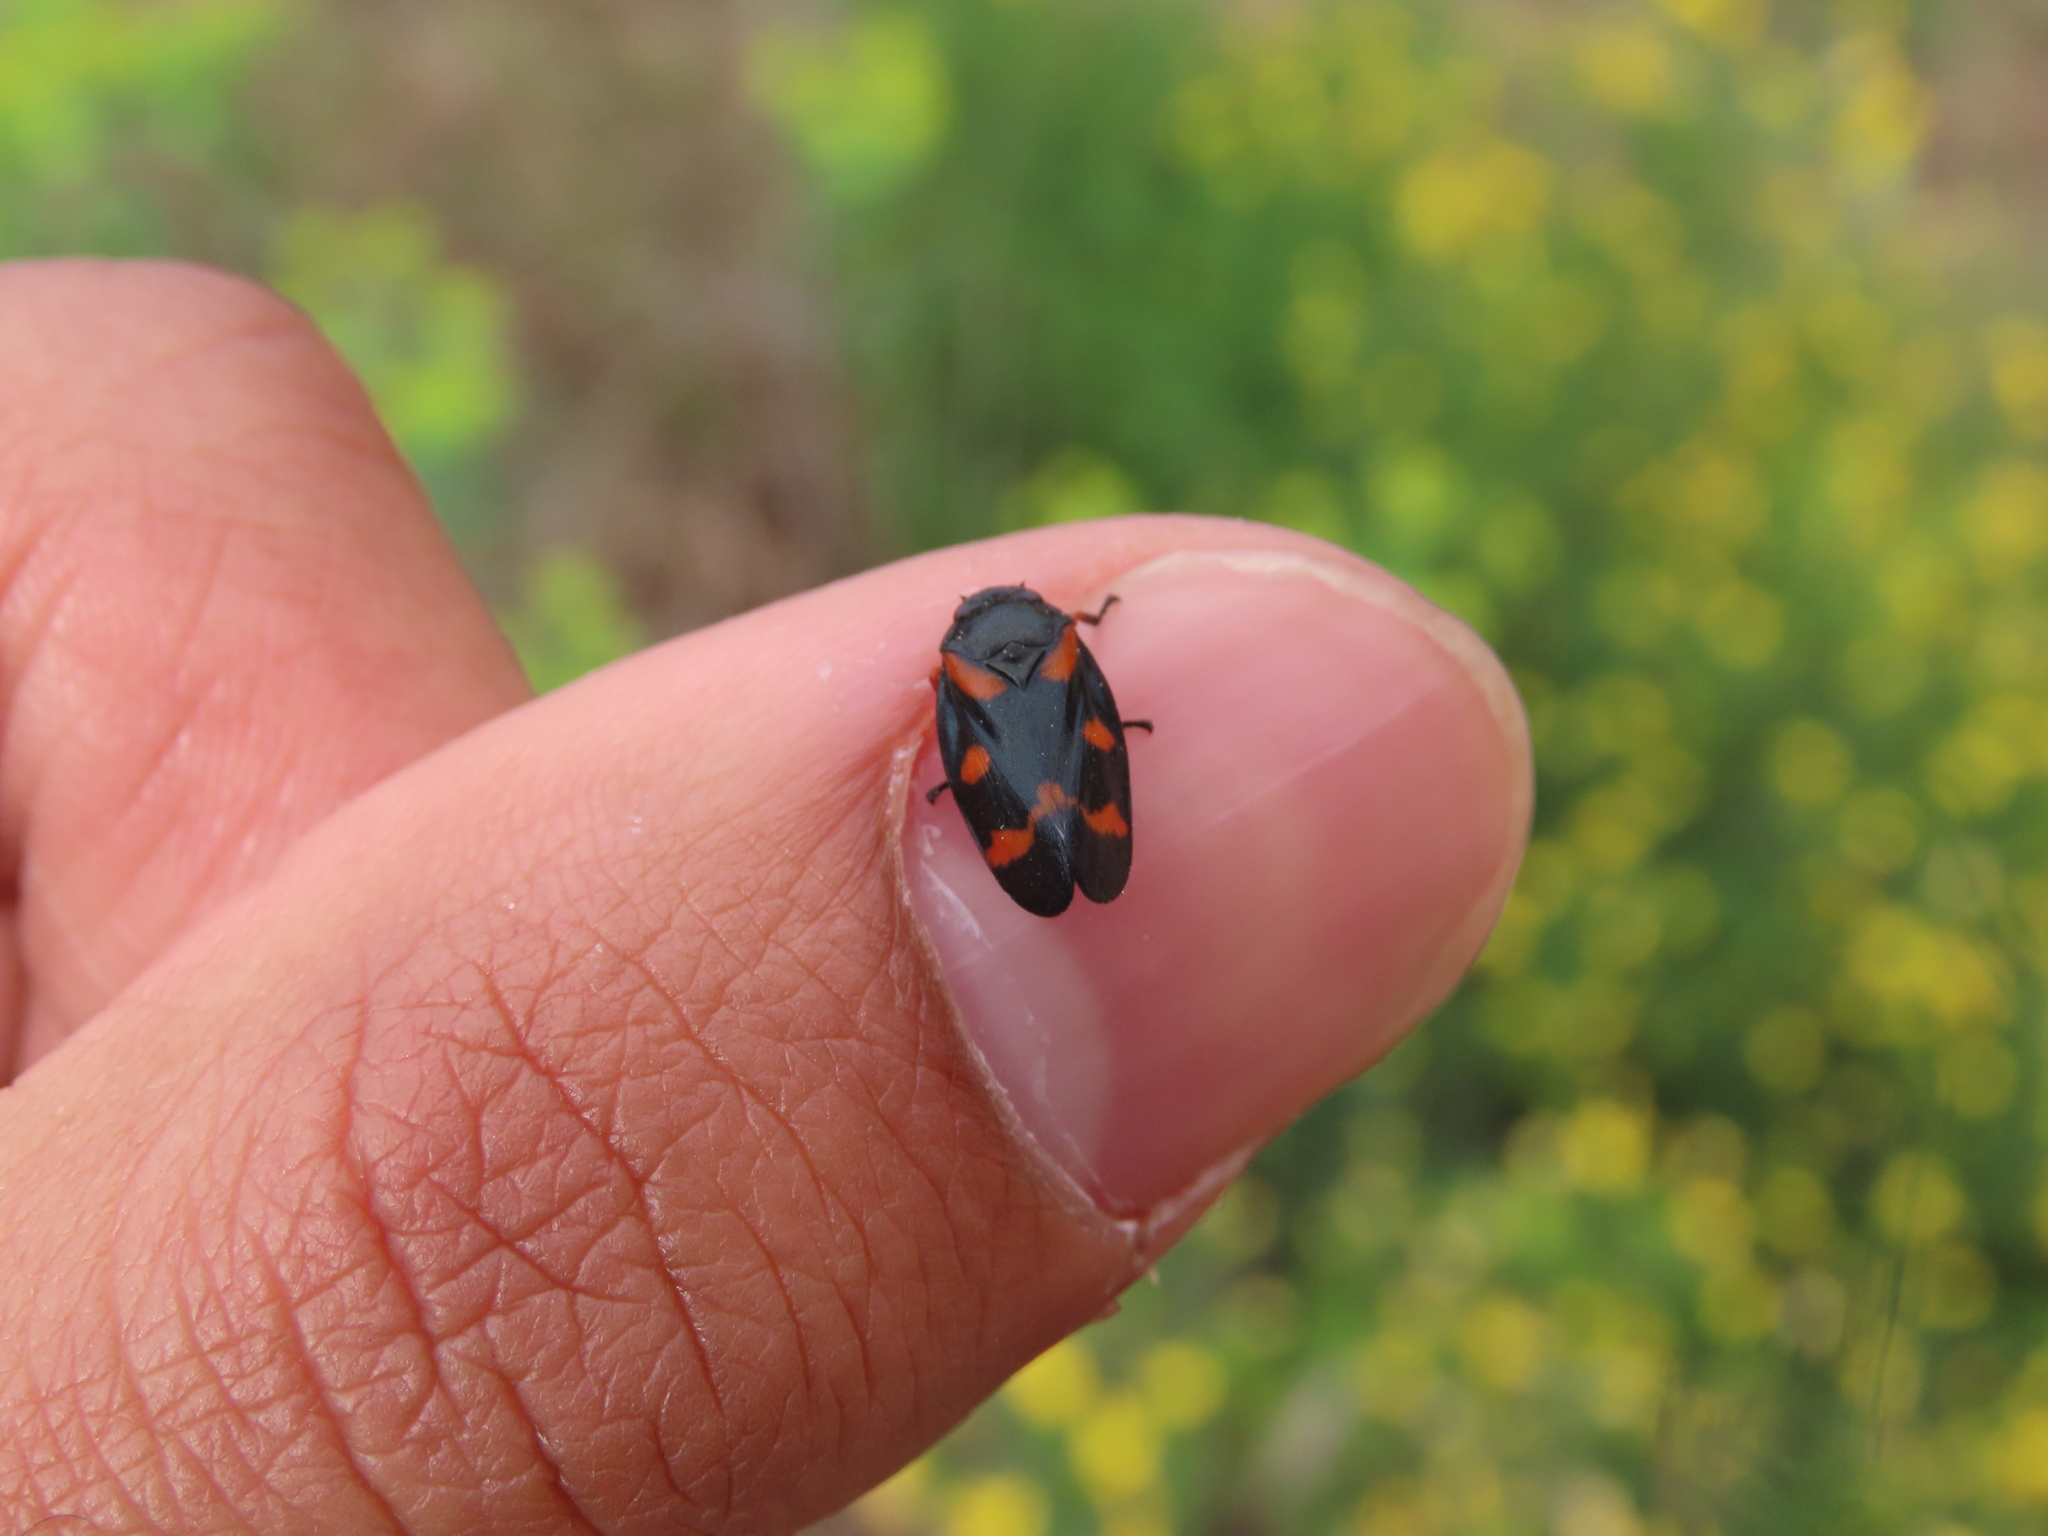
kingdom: Animalia
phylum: Arthropoda
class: Insecta
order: Hemiptera
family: Cercopidae
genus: Cercopis
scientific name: Cercopis intermedia
